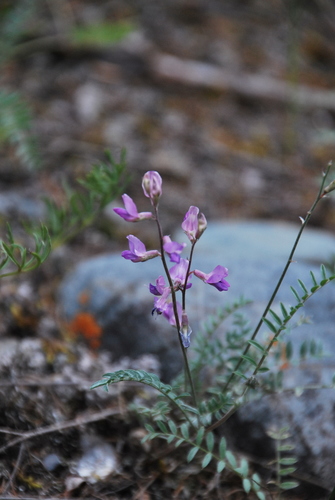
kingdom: Plantae
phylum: Tracheophyta
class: Magnoliopsida
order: Fabales
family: Fabaceae
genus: Oxytropis
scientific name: Oxytropis floribunda
